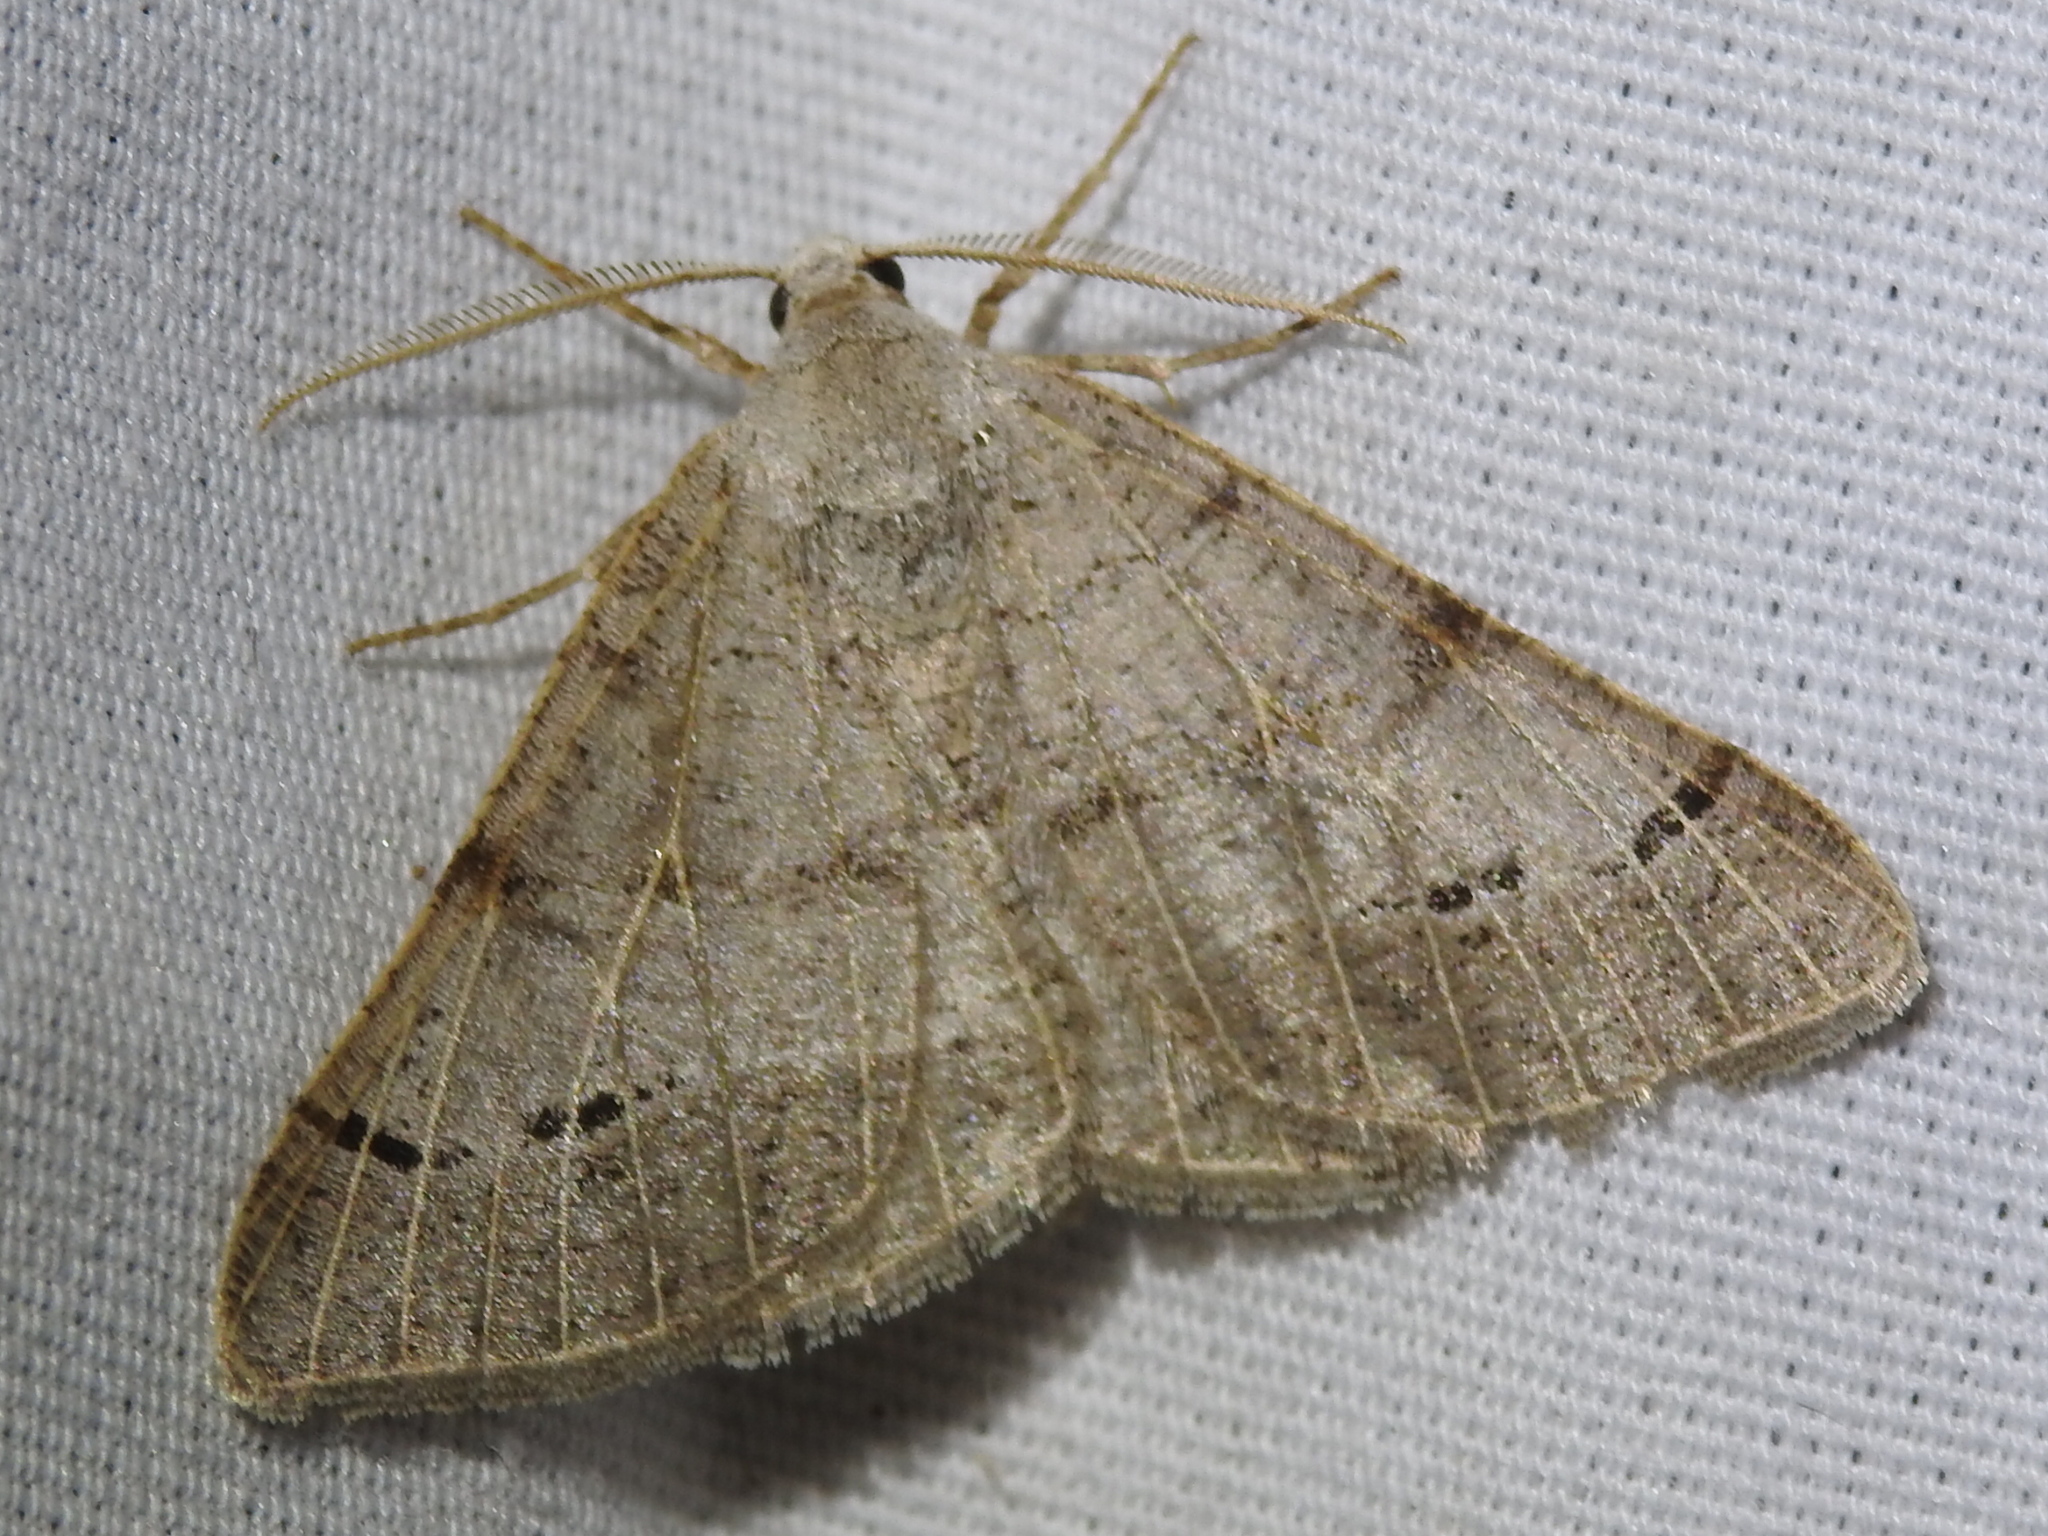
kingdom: Animalia
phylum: Arthropoda
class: Insecta
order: Lepidoptera
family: Geometridae
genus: Isturgia
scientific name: Isturgia dislocaria
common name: Pale-viened enconista
